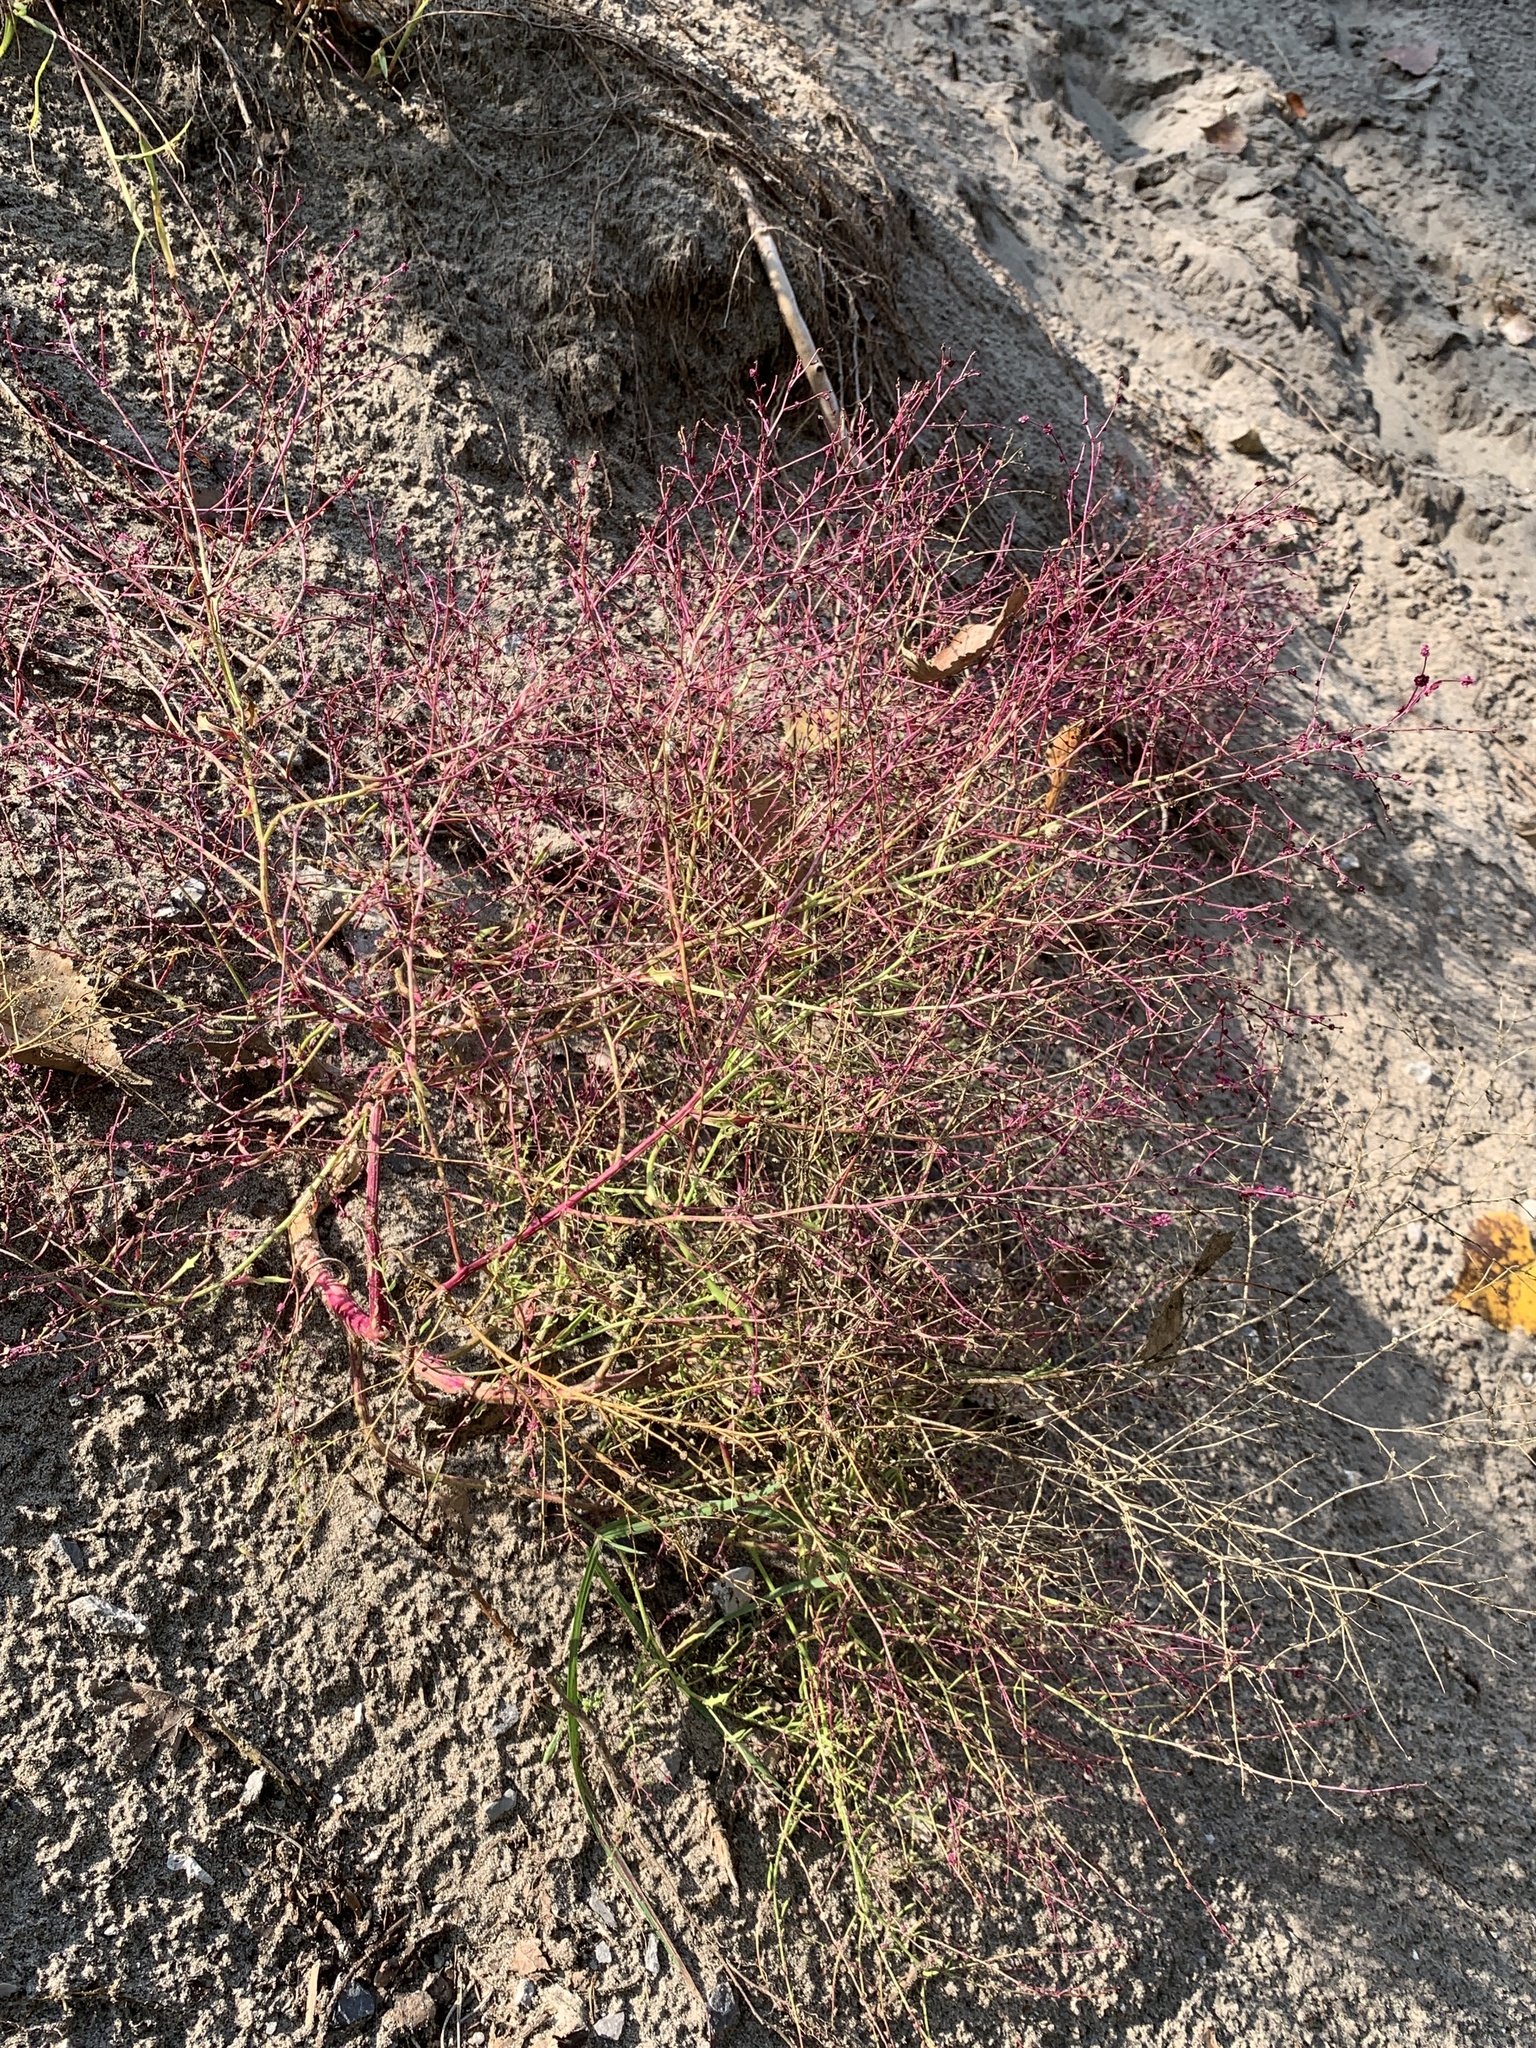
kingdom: Plantae
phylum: Tracheophyta
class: Magnoliopsida
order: Caryophyllales
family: Amaranthaceae
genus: Dysphania
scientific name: Dysphania atriplicifolia
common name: Plains tumbleweed
